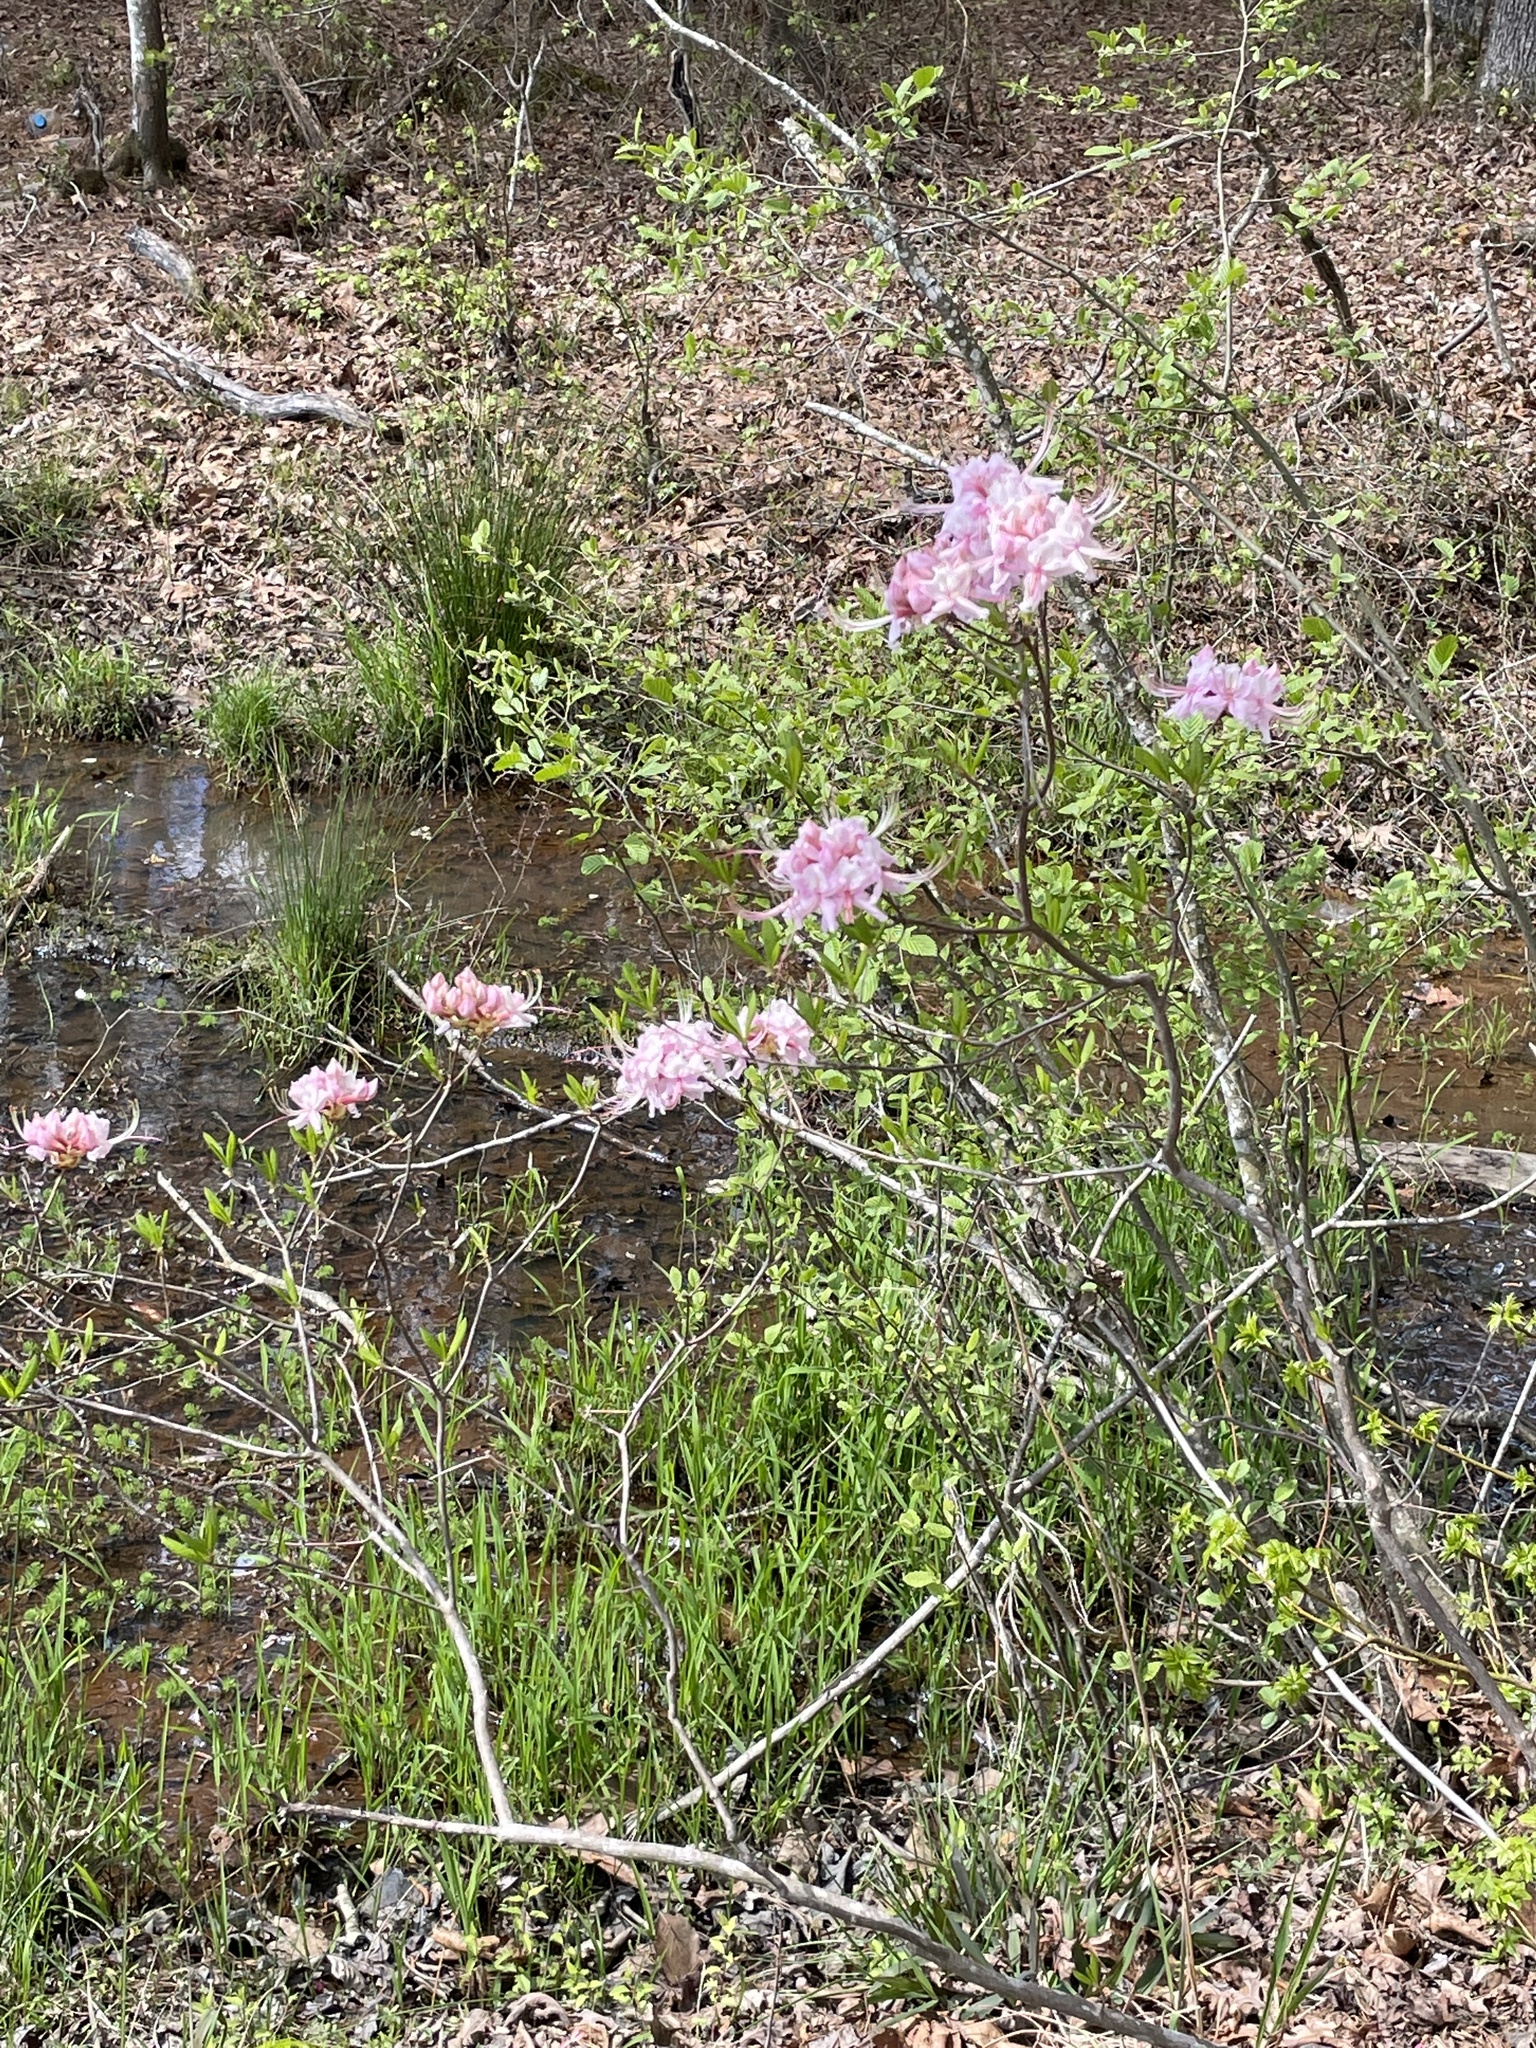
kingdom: Plantae
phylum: Tracheophyta
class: Magnoliopsida
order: Ericales
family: Ericaceae
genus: Rhododendron
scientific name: Rhododendron periclymenoides
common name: Election-pink
